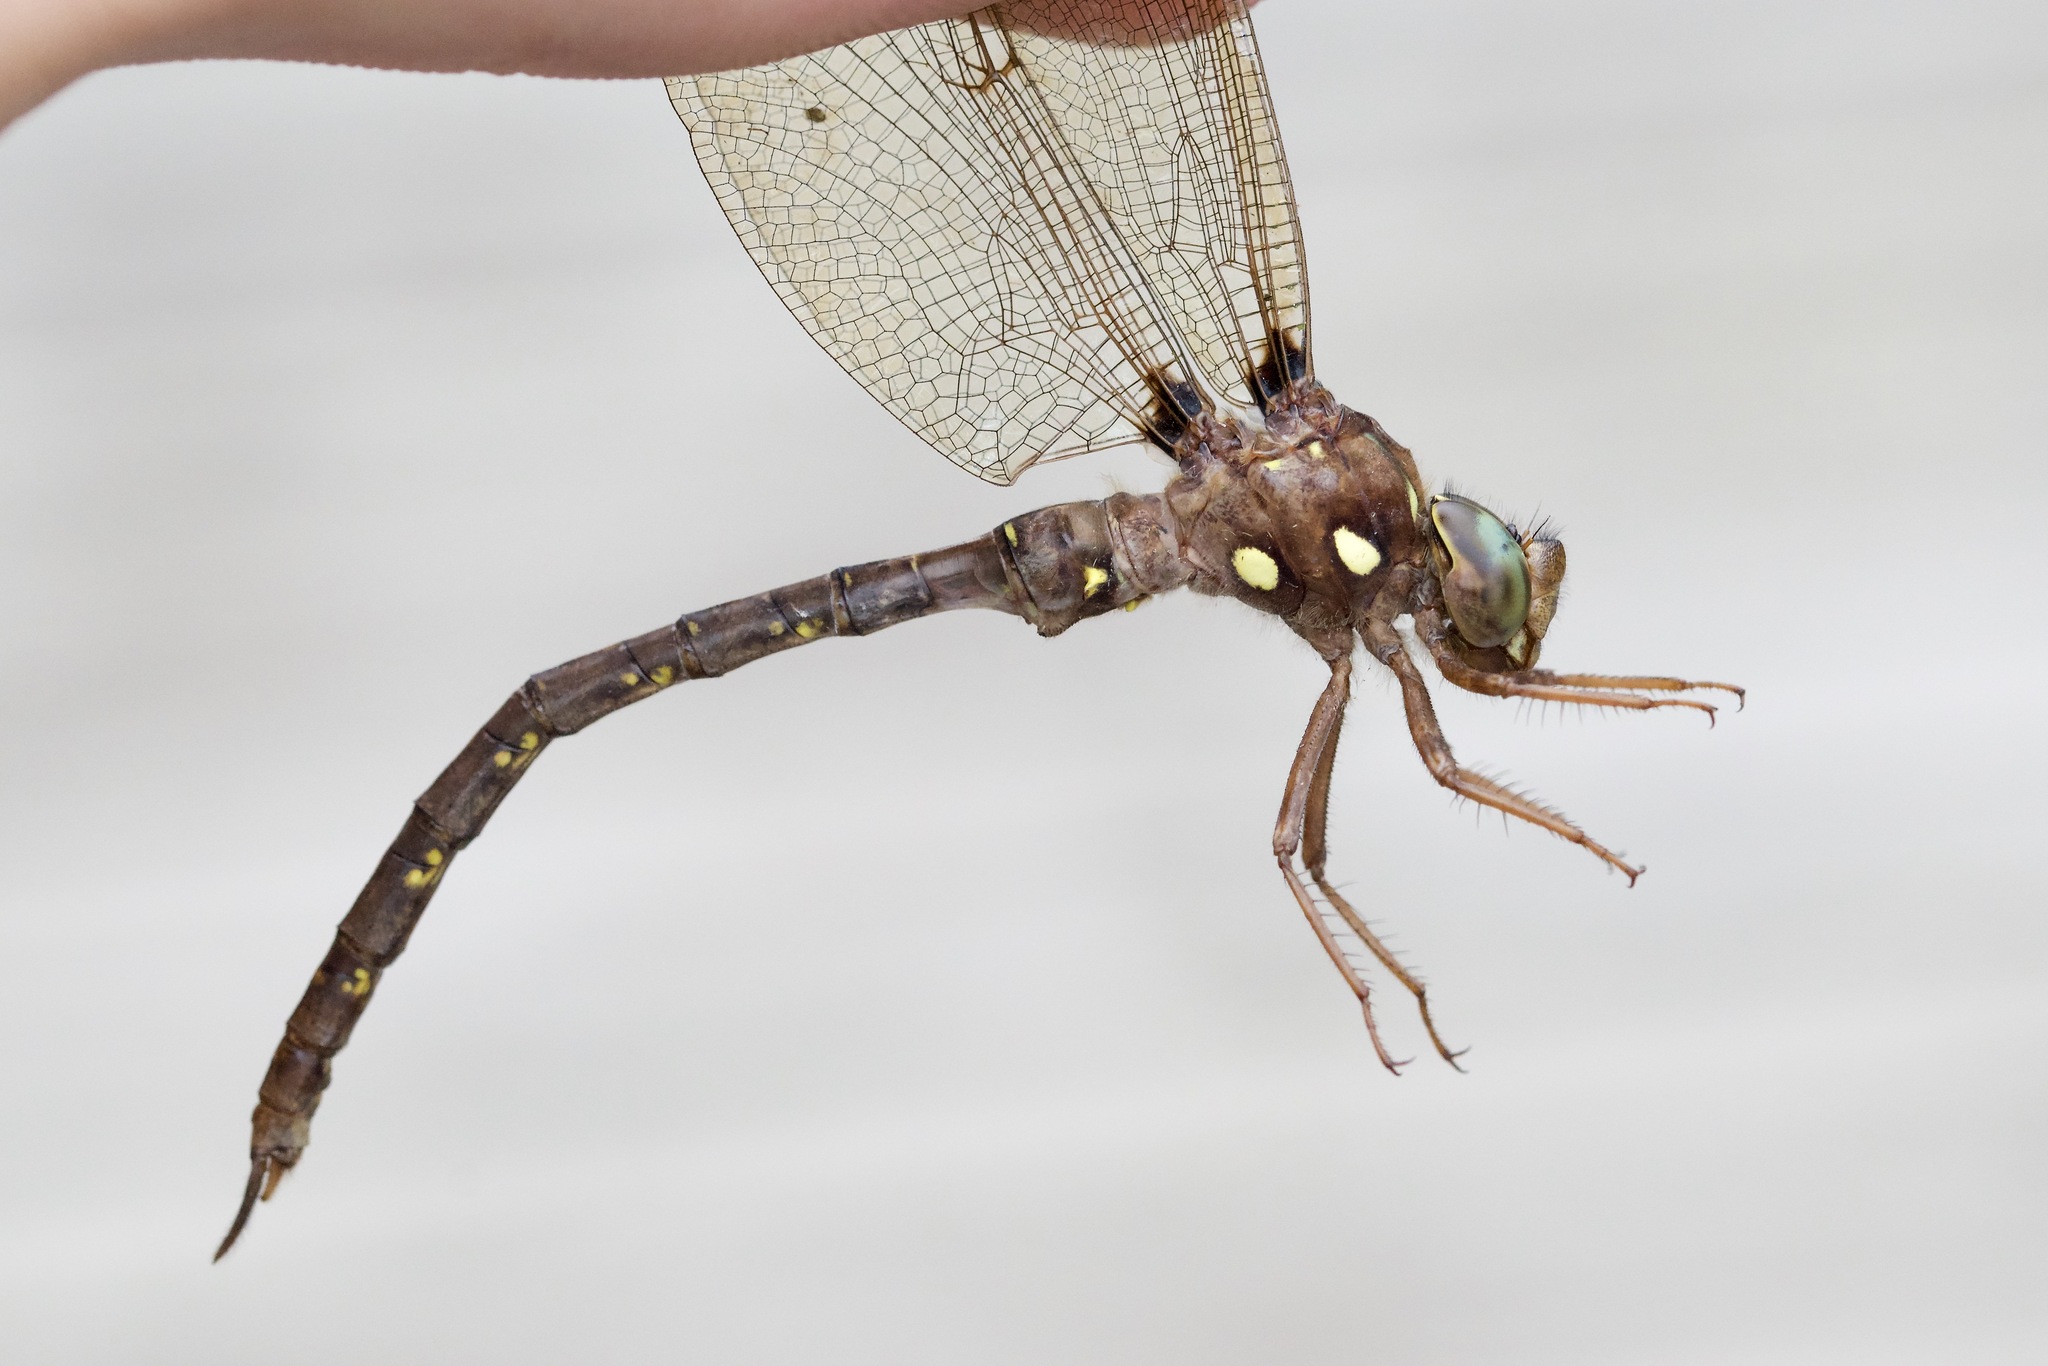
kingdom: Animalia
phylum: Arthropoda
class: Insecta
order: Odonata
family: Aeshnidae
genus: Boyeria
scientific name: Boyeria vinosa
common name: Fawn darner
